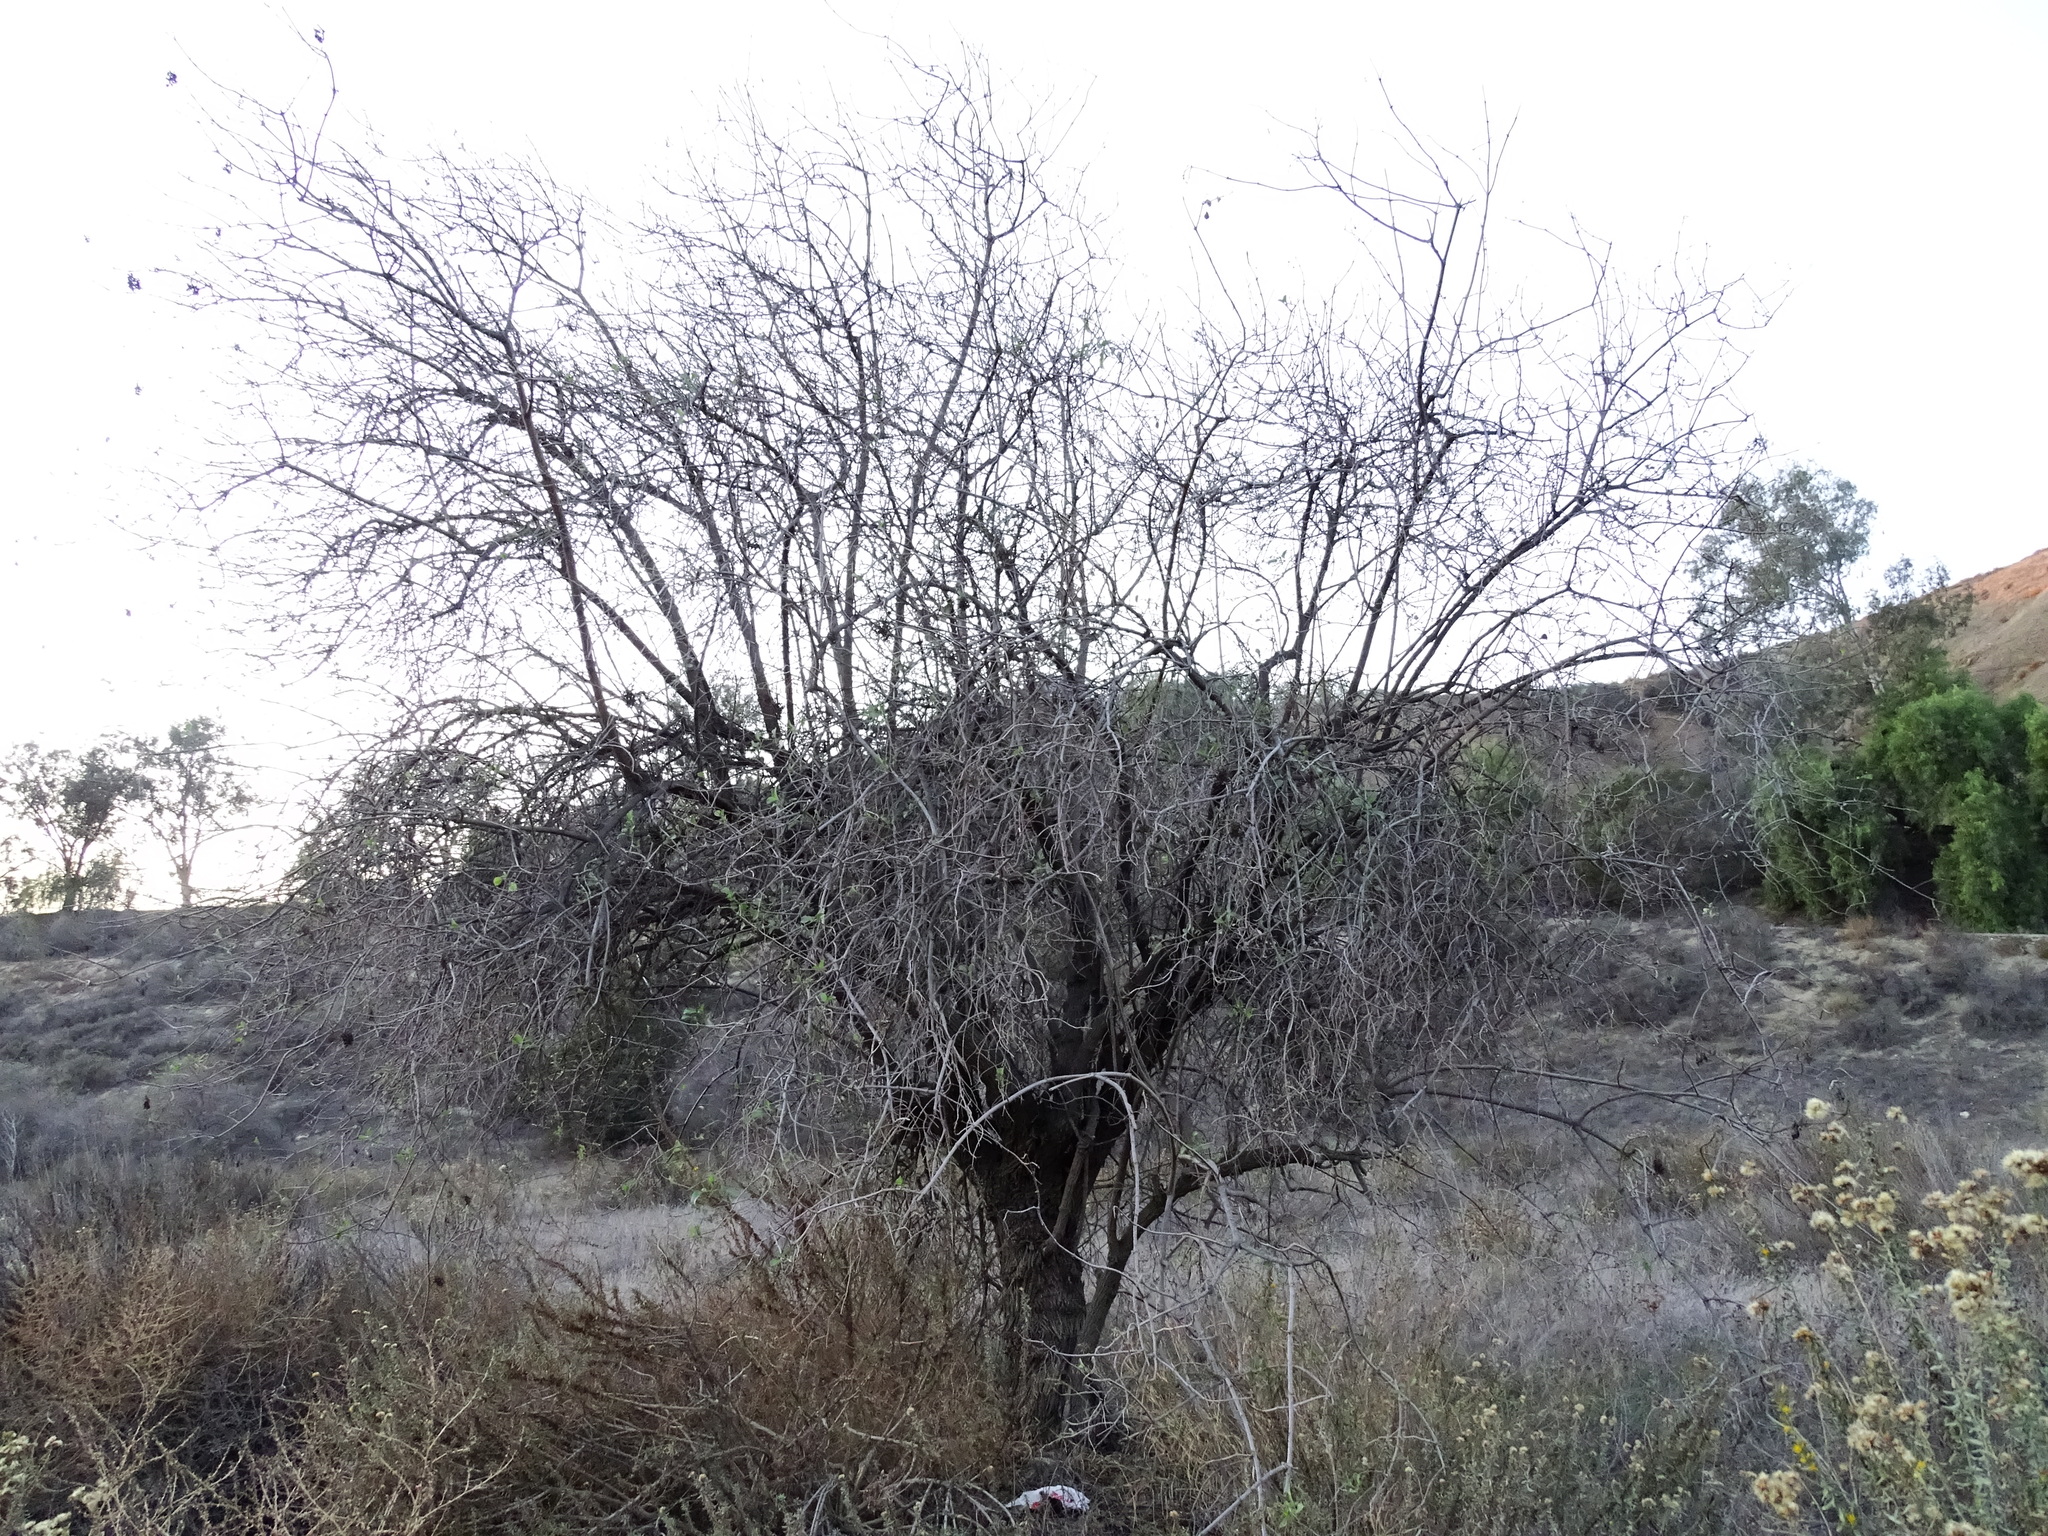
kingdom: Plantae
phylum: Tracheophyta
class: Magnoliopsida
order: Dipsacales
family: Viburnaceae
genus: Sambucus
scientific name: Sambucus cerulea
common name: Blue elder
